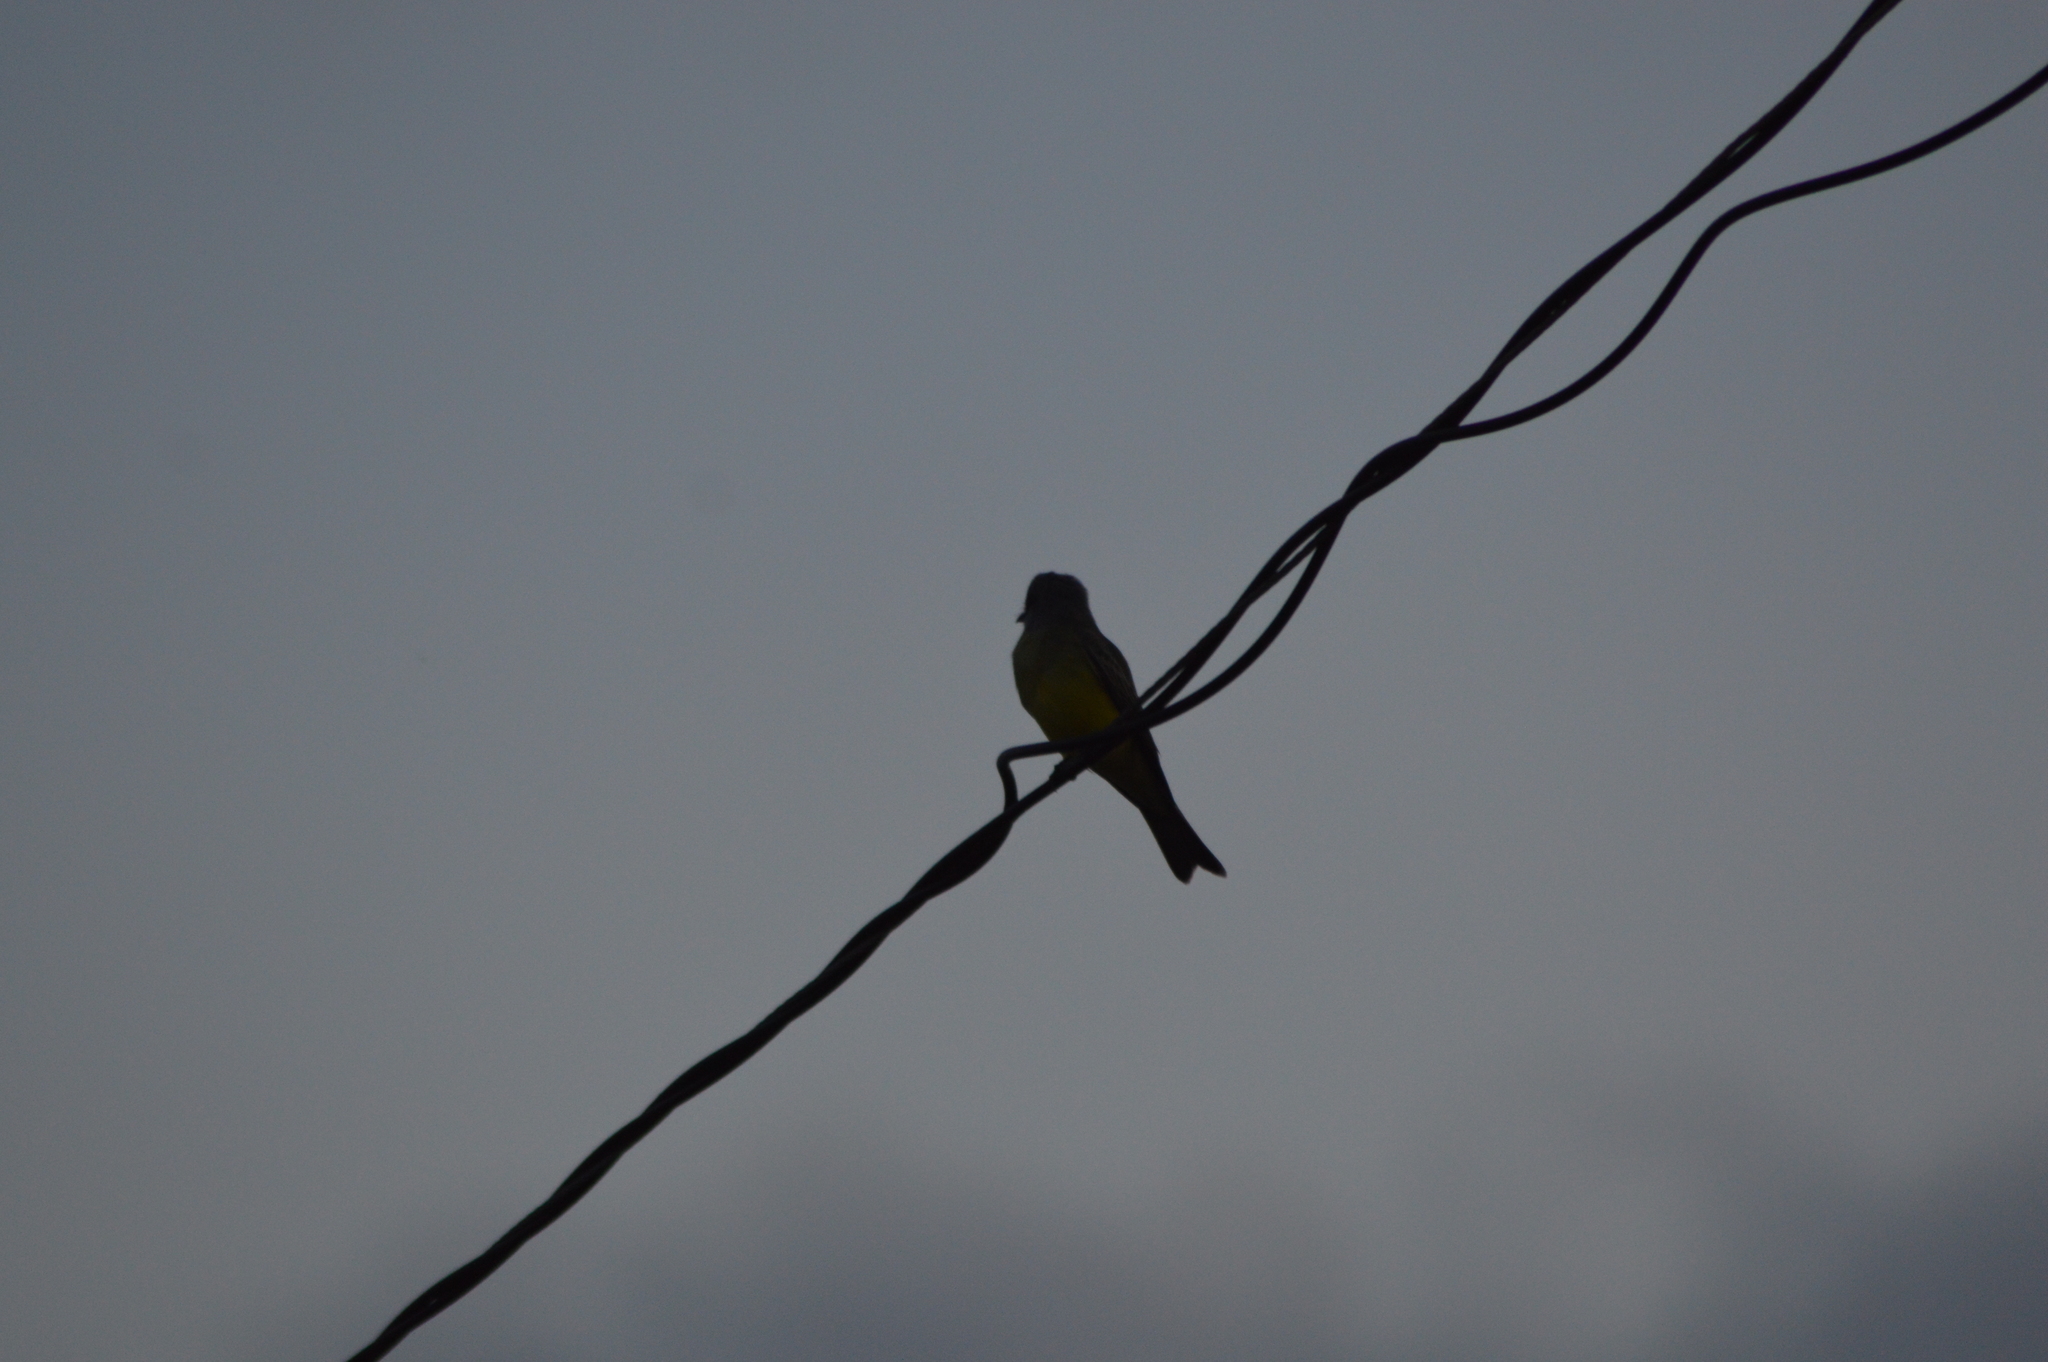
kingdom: Animalia
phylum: Chordata
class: Aves
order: Passeriformes
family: Tyrannidae
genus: Tyrannus
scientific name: Tyrannus melancholicus
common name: Tropical kingbird
